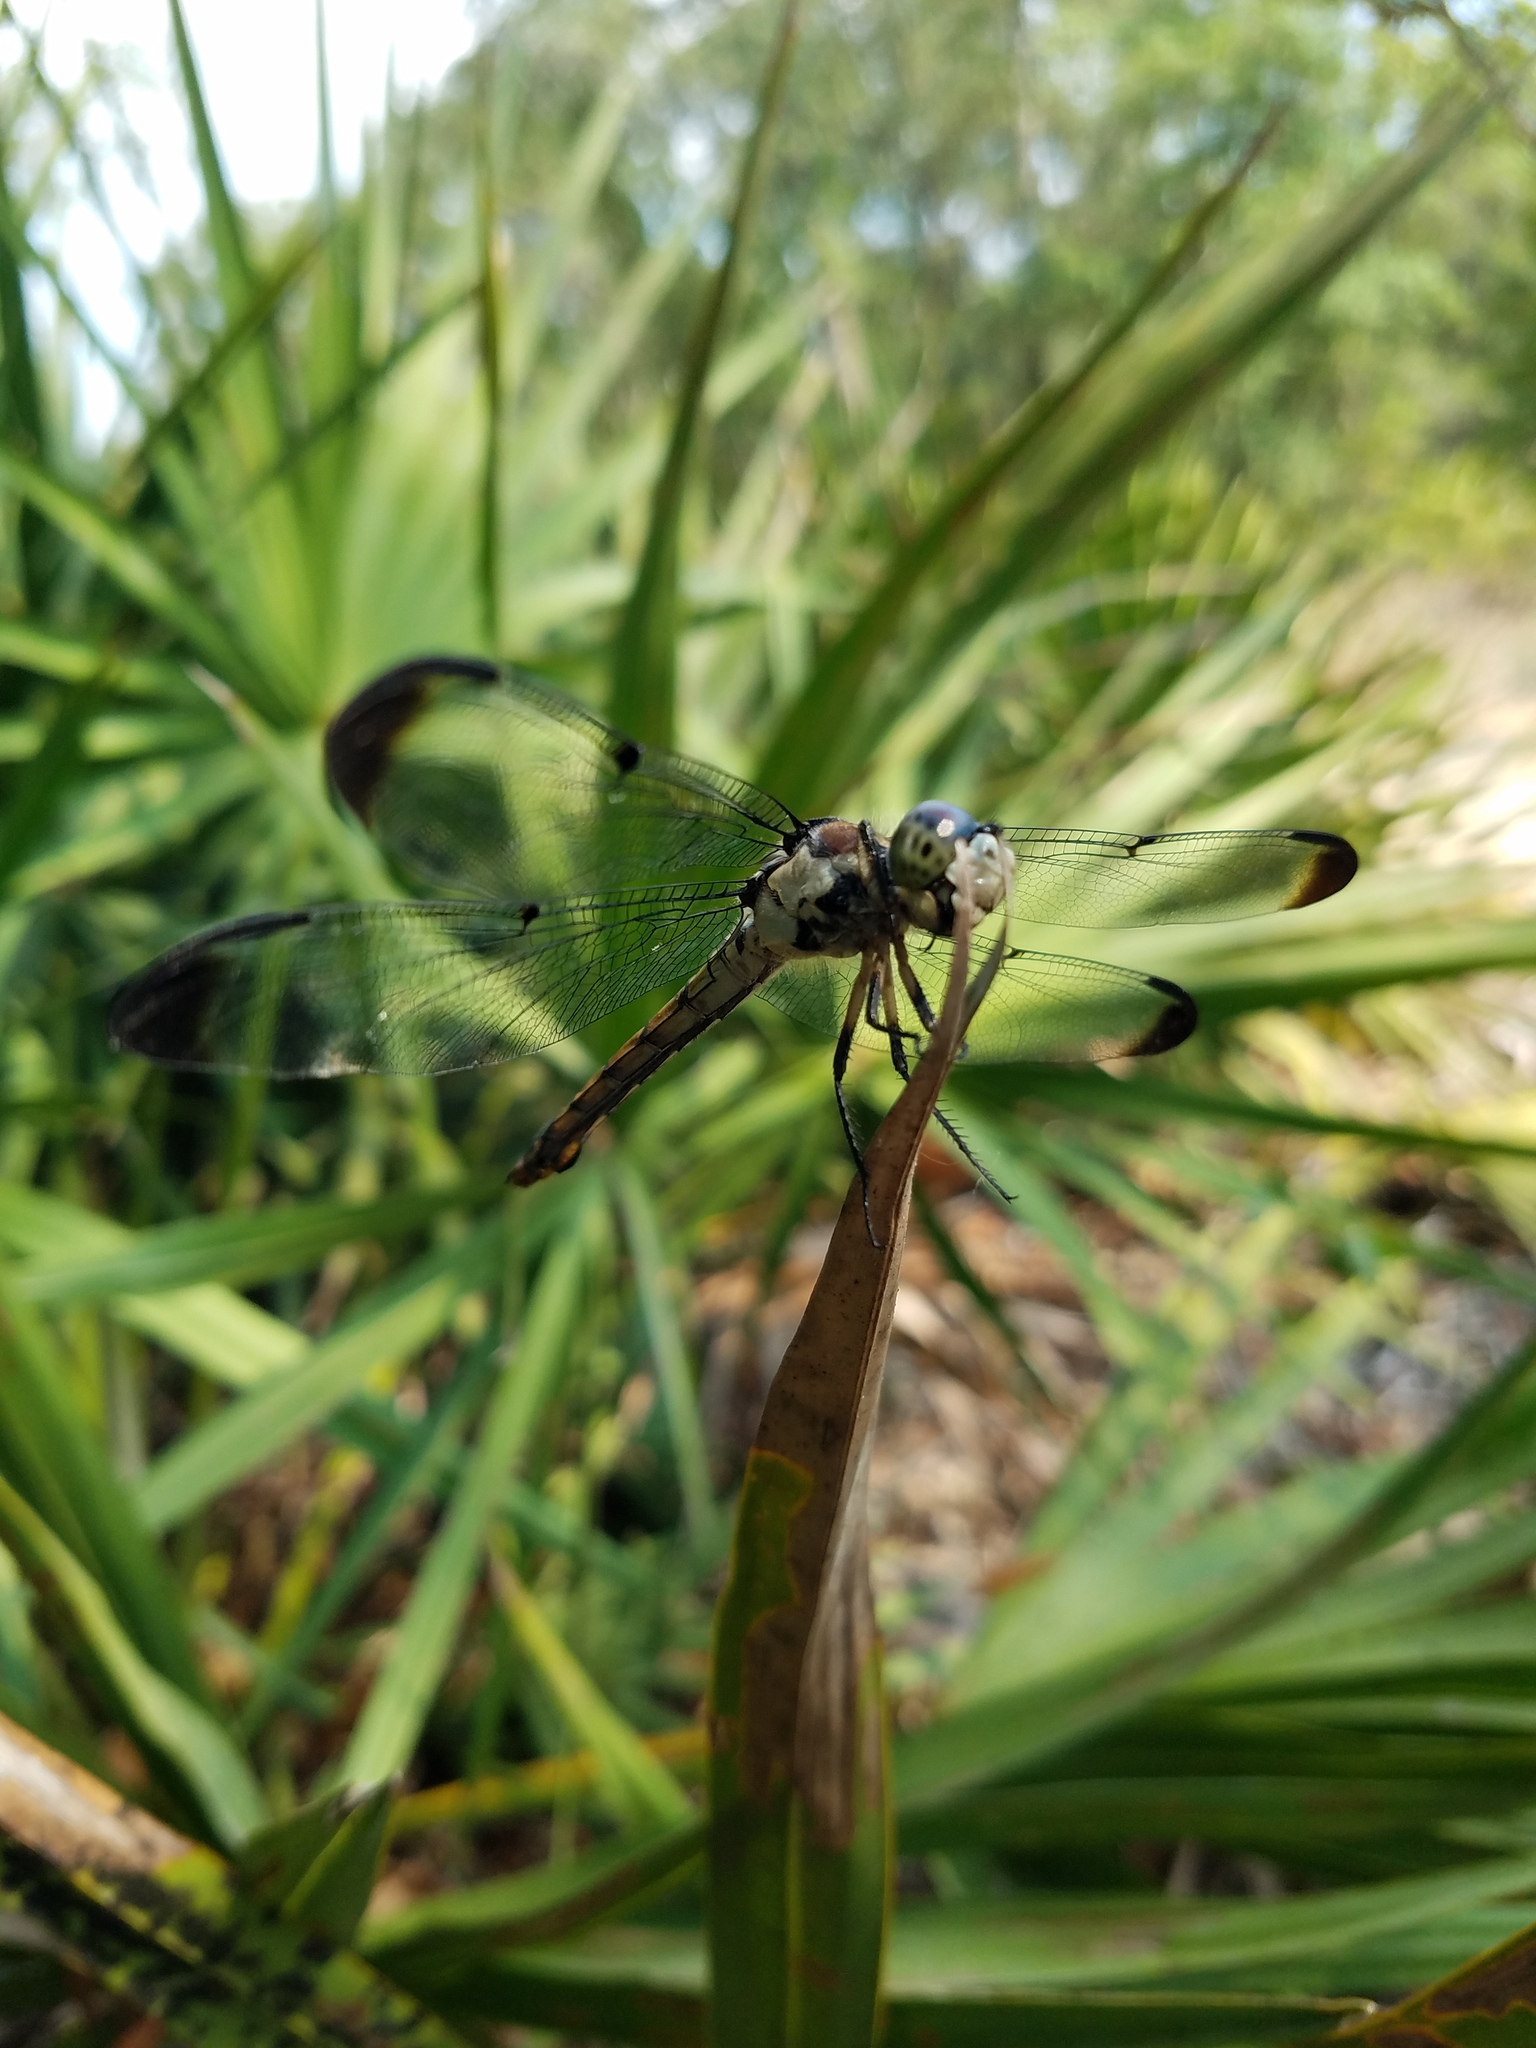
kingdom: Animalia
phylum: Arthropoda
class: Insecta
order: Odonata
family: Libellulidae
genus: Libellula
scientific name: Libellula vibrans
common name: Great blue skimmer
